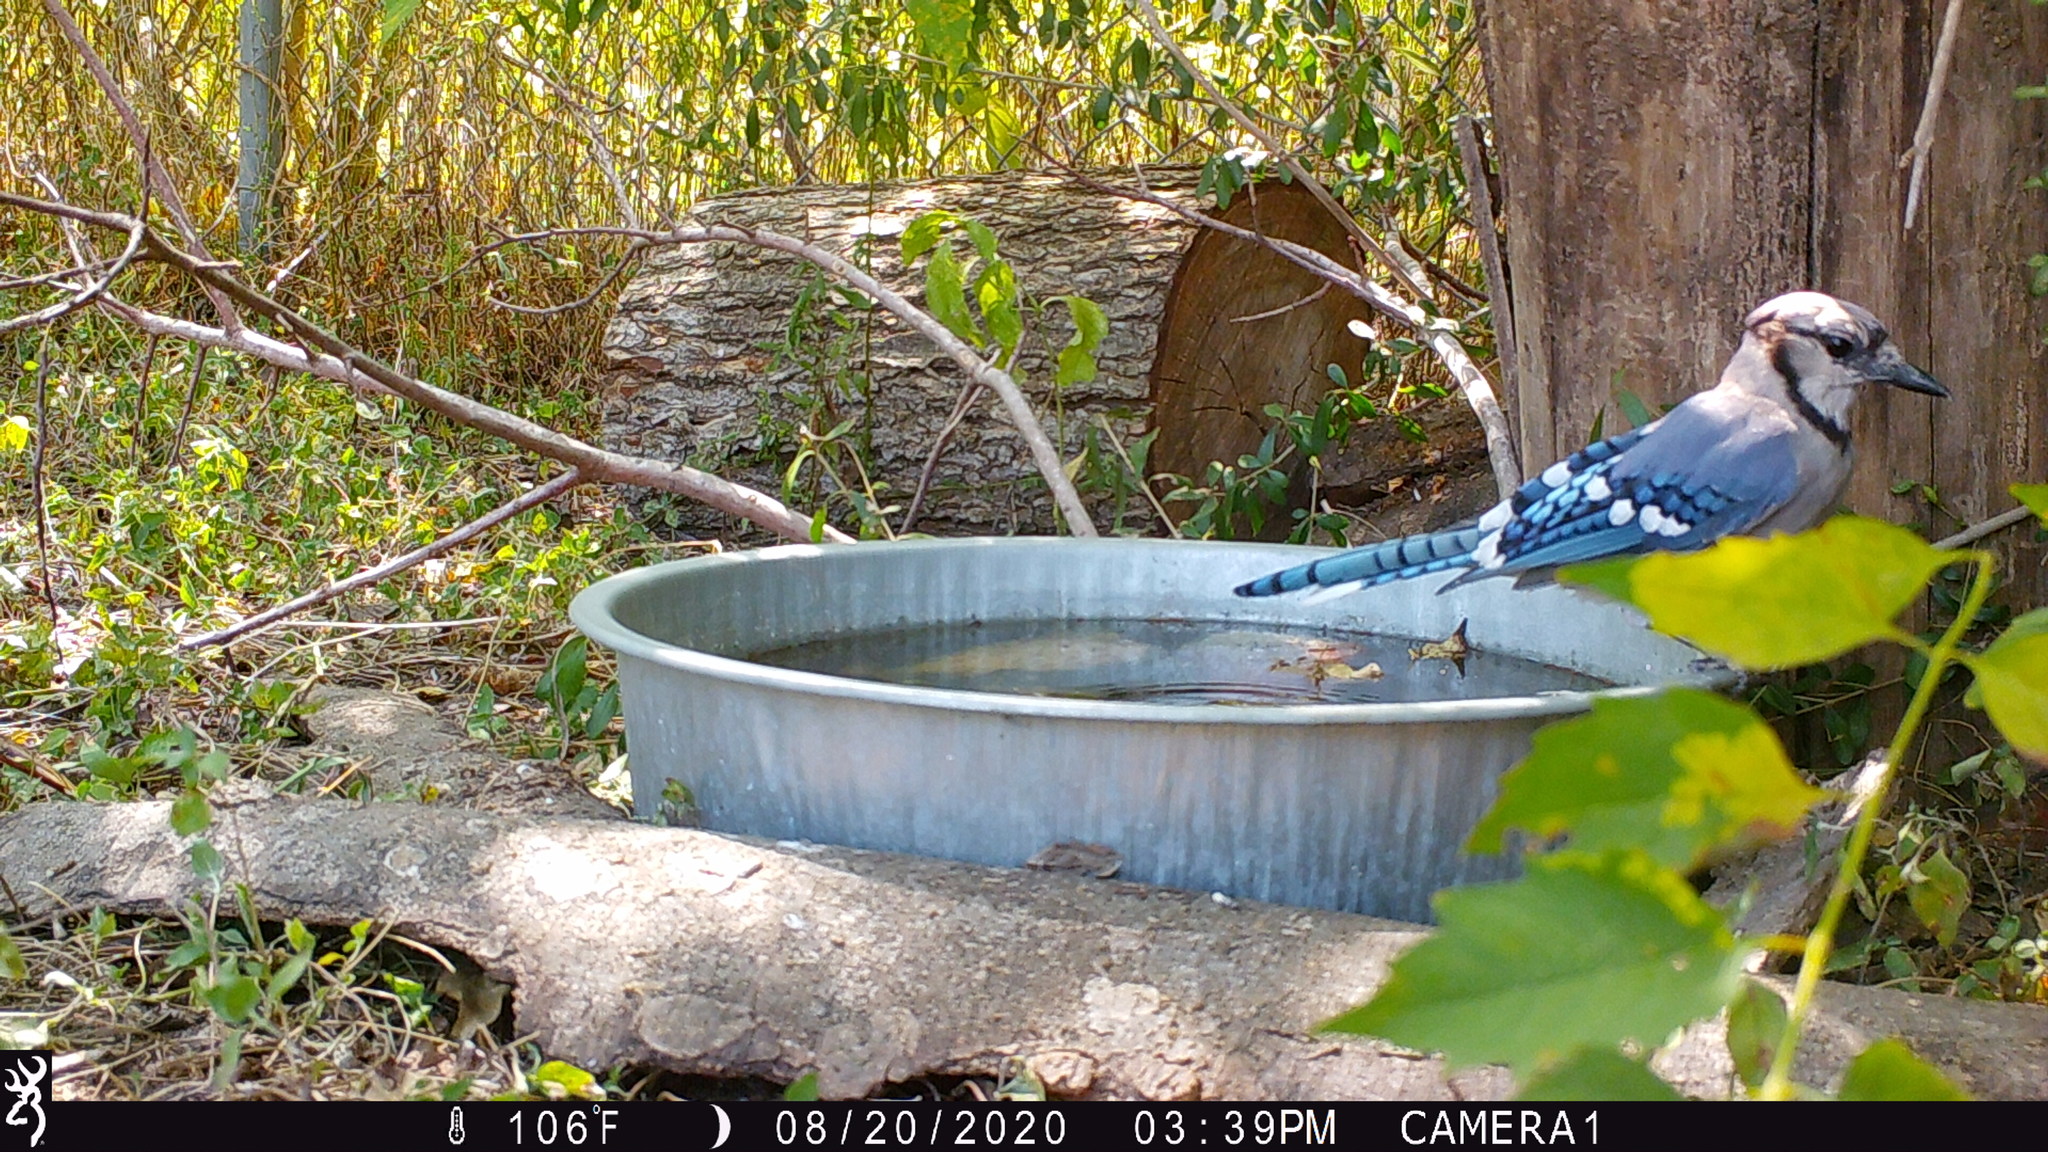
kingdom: Animalia
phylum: Chordata
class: Aves
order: Passeriformes
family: Corvidae
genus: Cyanocitta
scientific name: Cyanocitta cristata
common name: Blue jay
